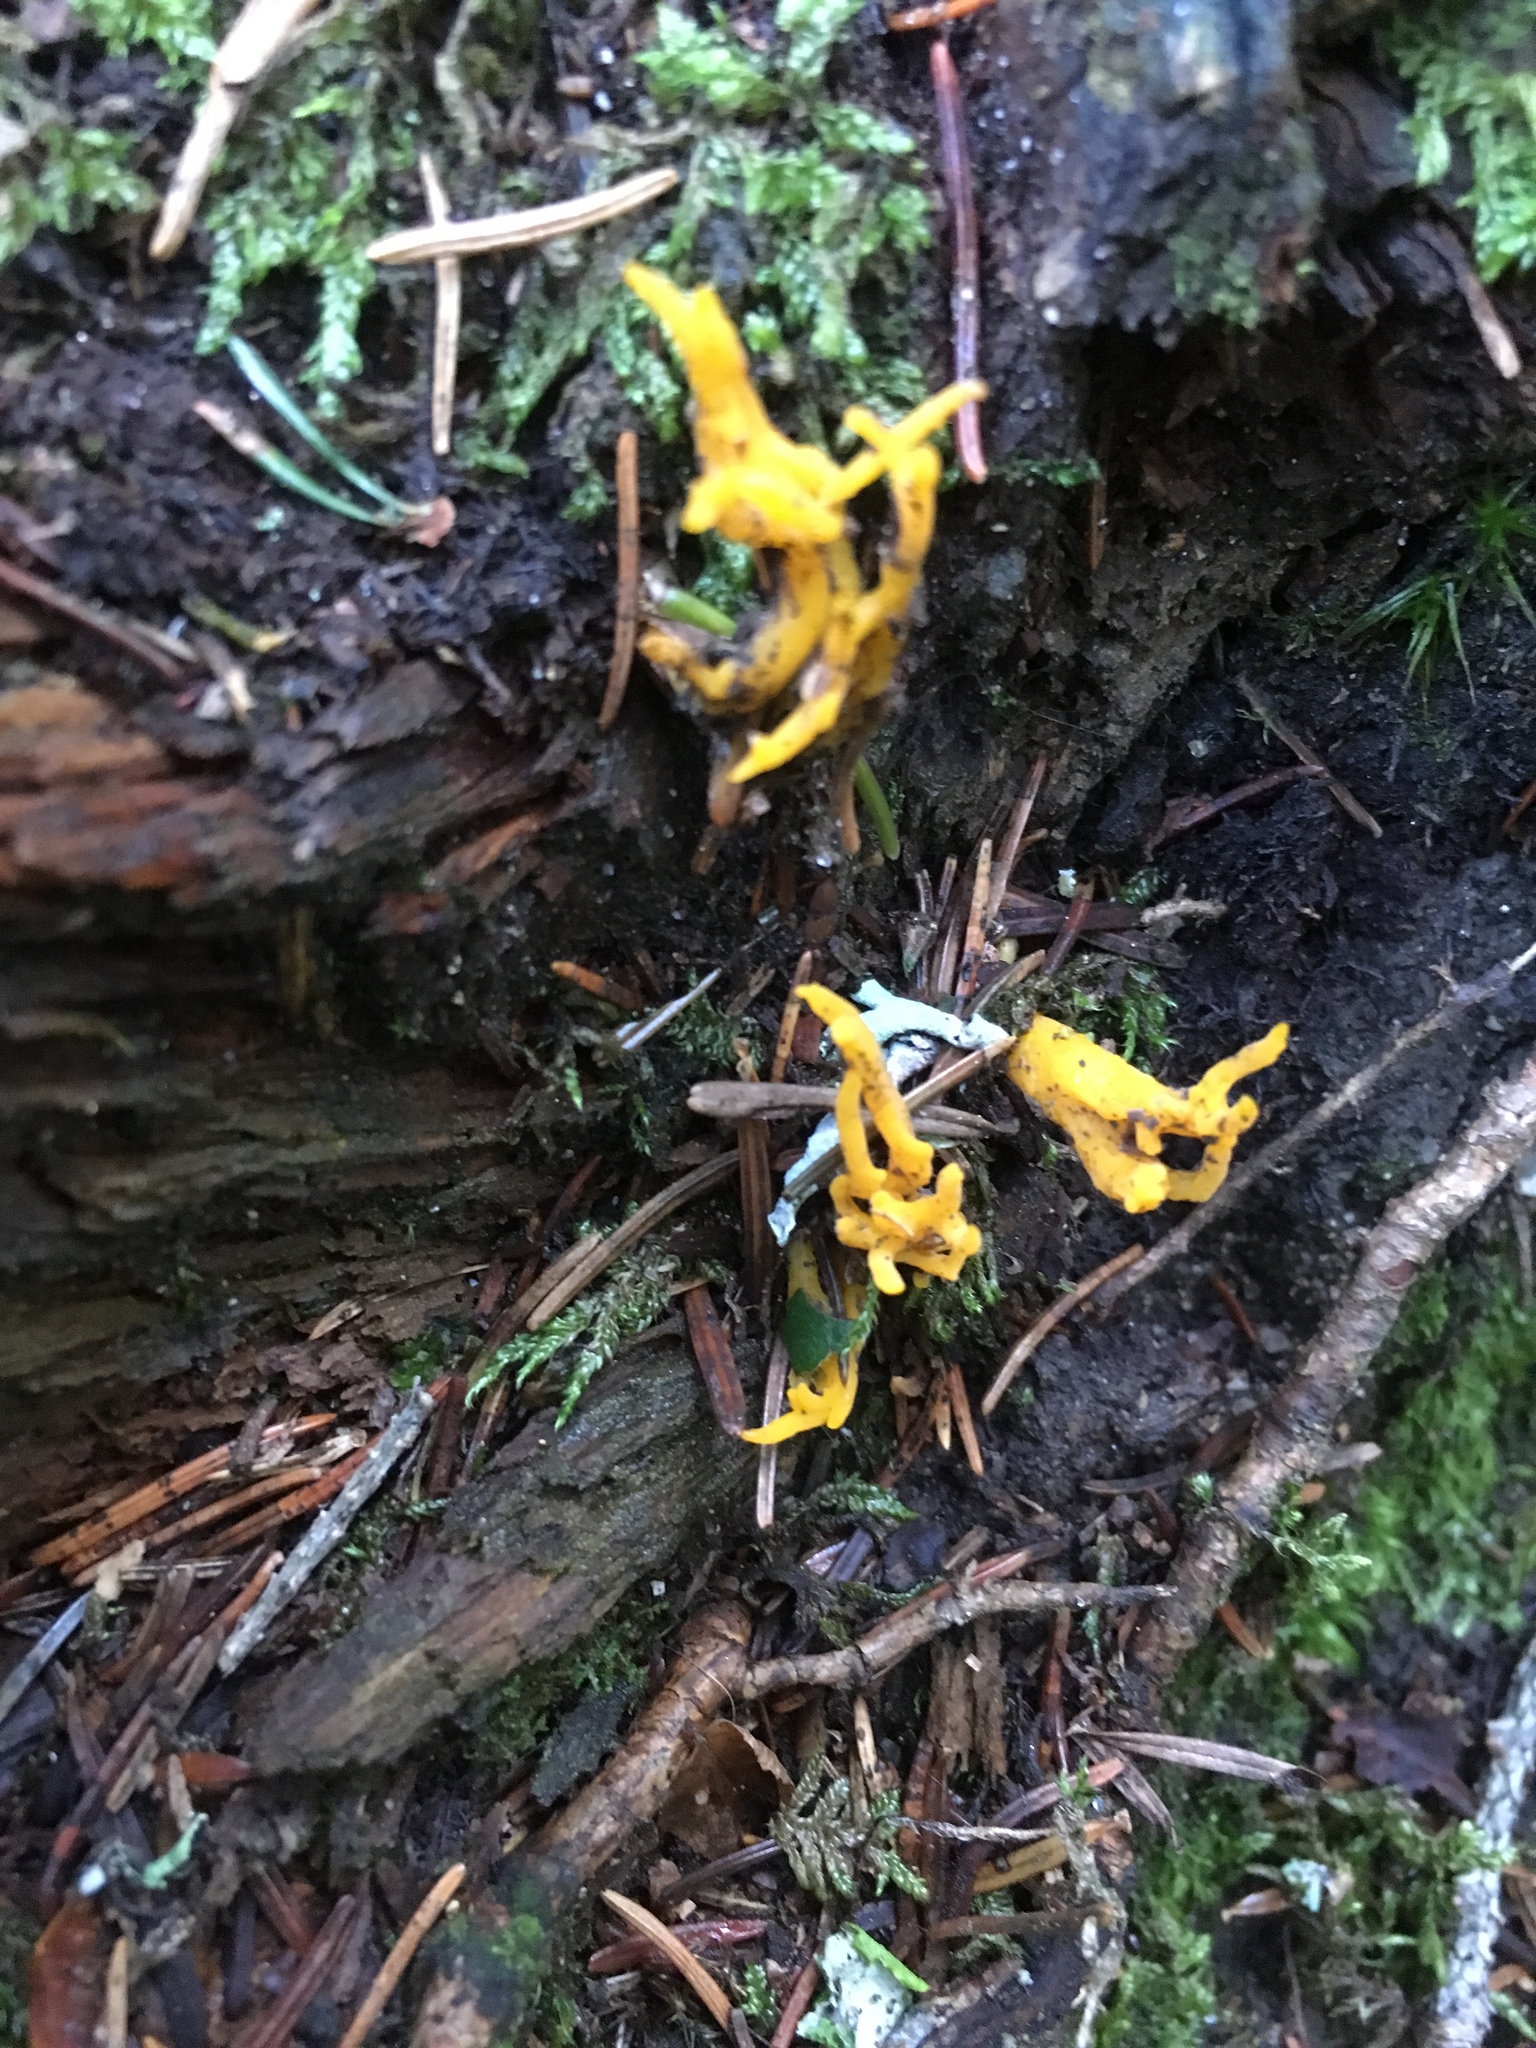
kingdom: Fungi
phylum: Basidiomycota
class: Dacrymycetes
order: Dacrymycetales
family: Dacrymycetaceae
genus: Calocera
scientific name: Calocera viscosa
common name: Yellow stagshorn
